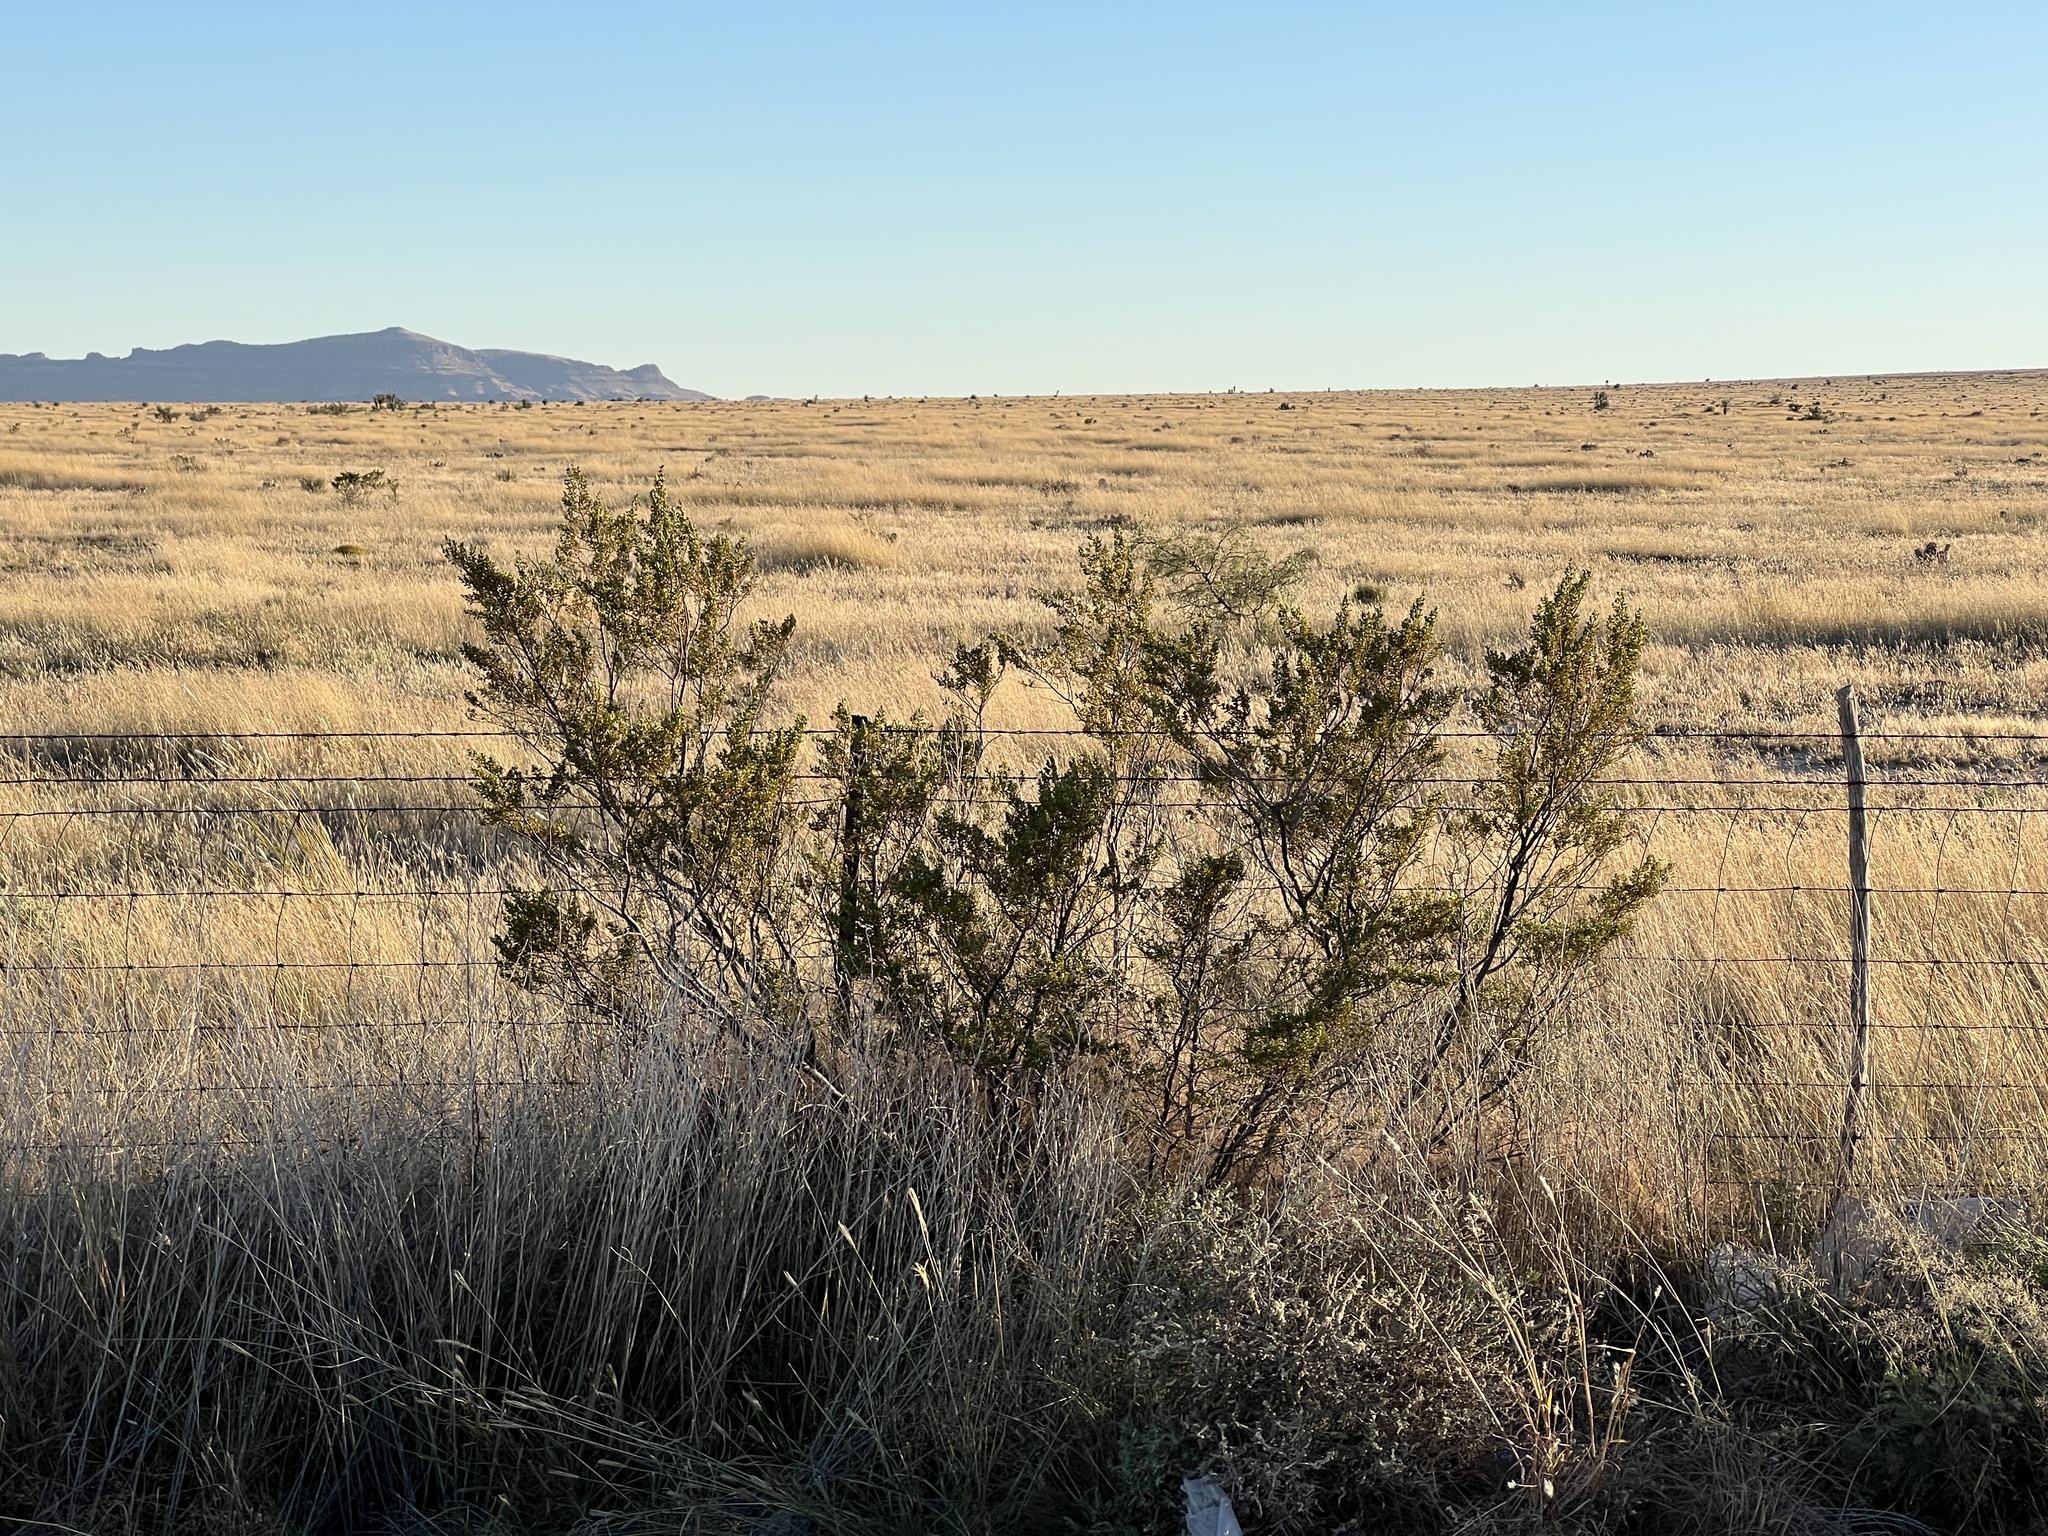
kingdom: Plantae
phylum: Tracheophyta
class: Magnoliopsida
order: Zygophyllales
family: Zygophyllaceae
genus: Larrea
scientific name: Larrea tridentata
